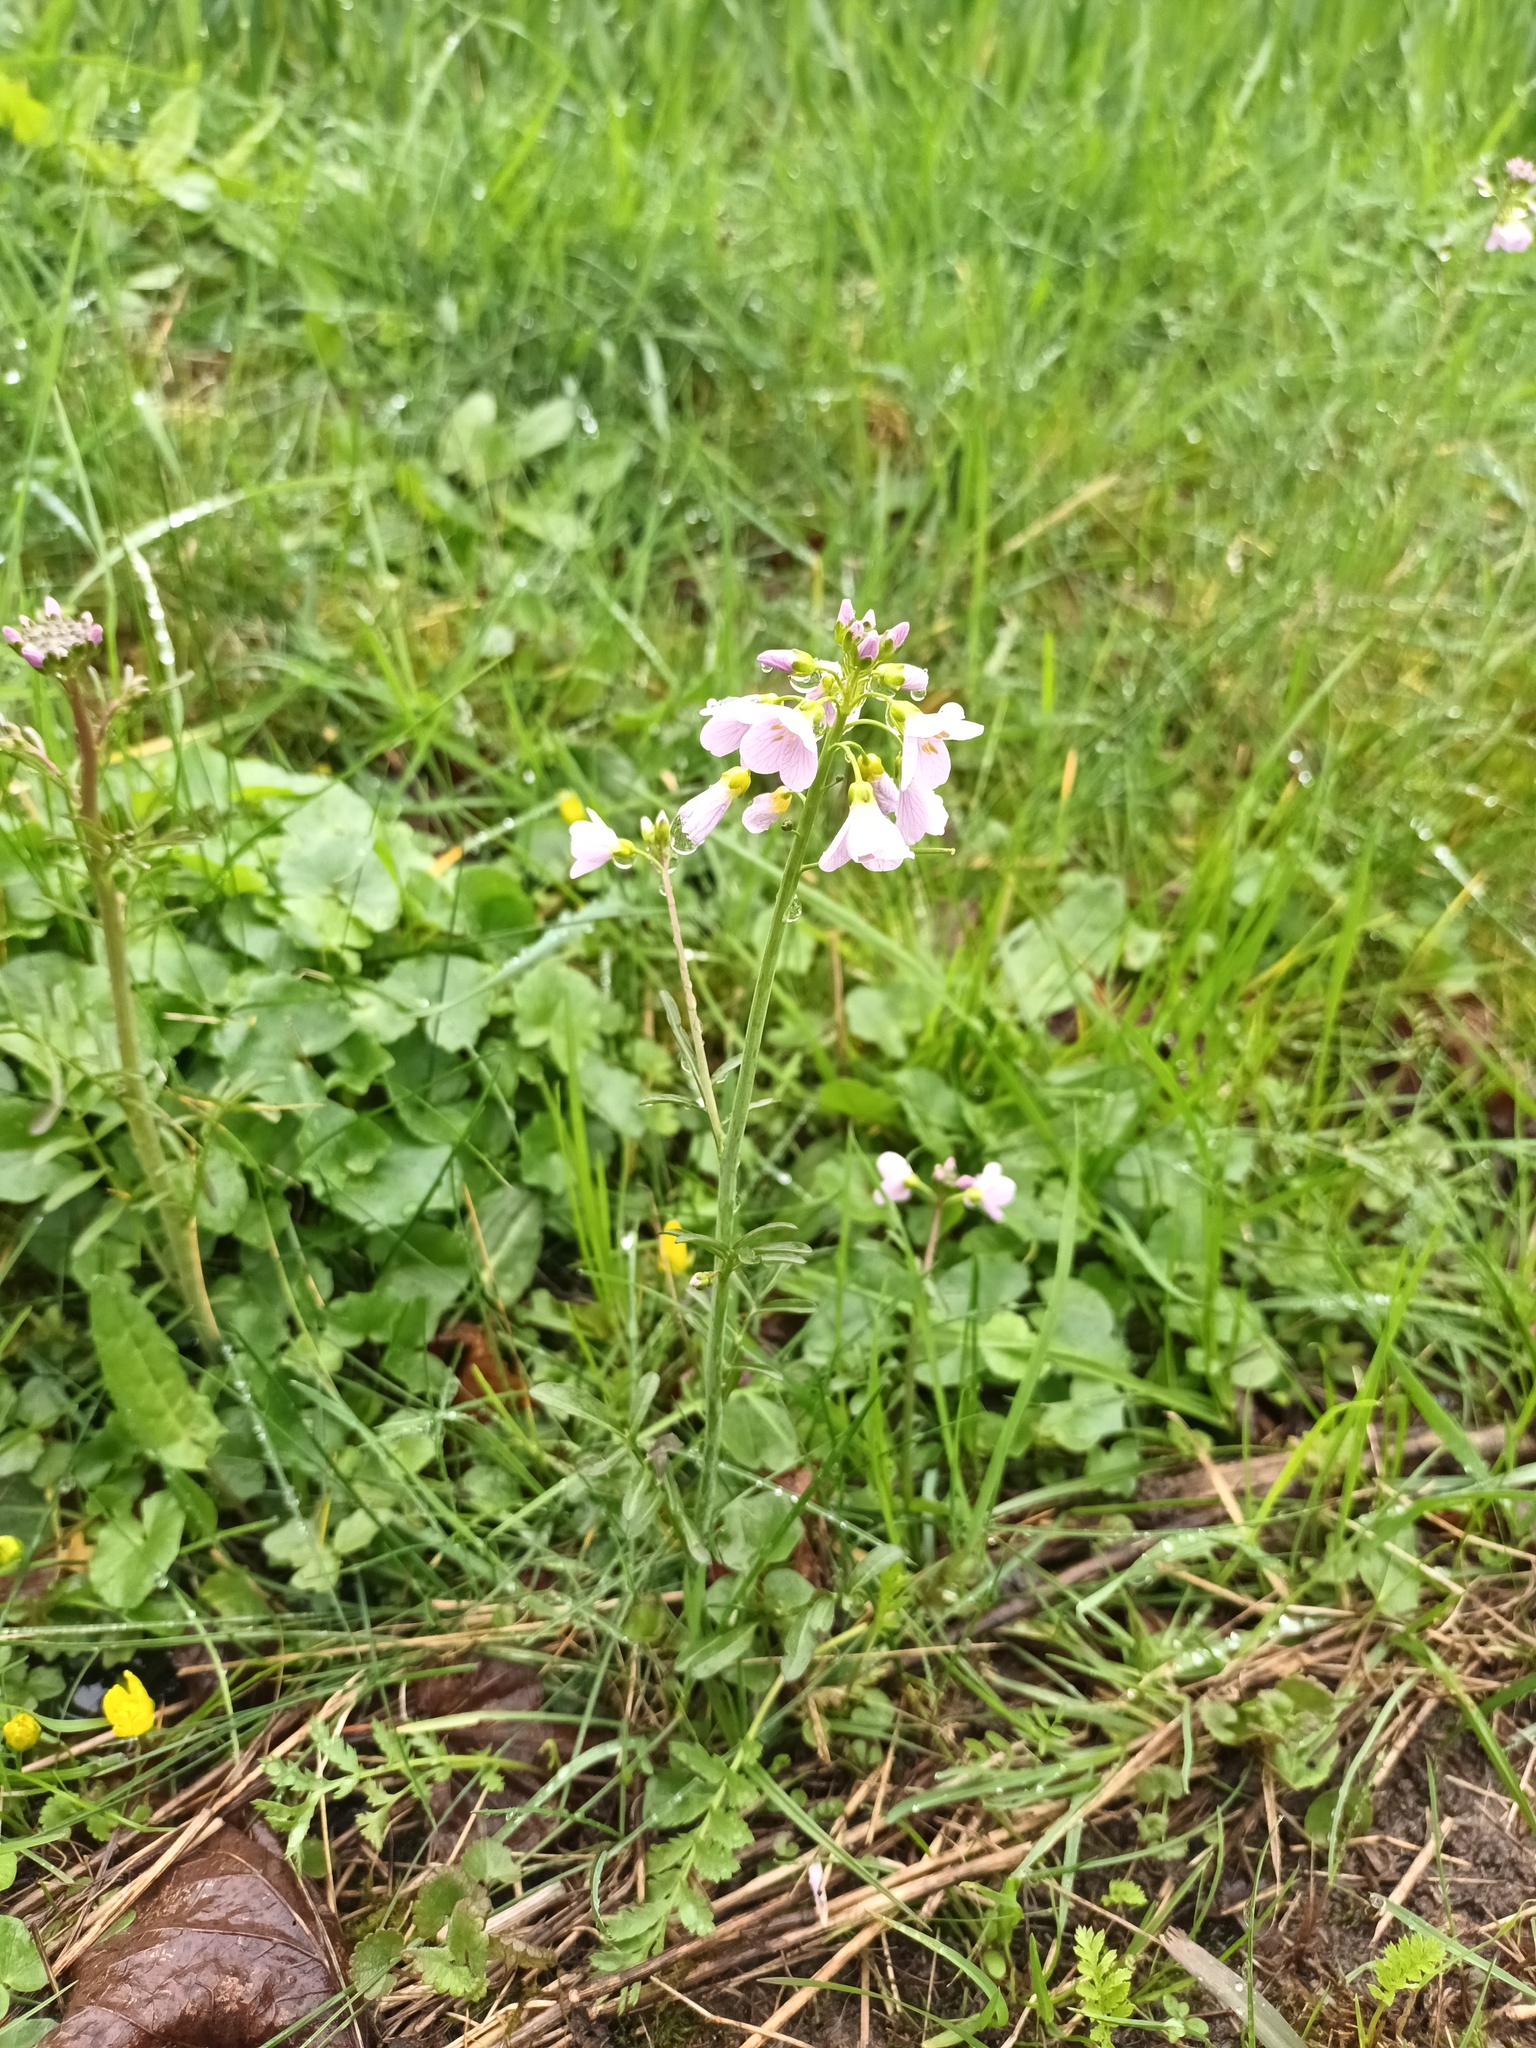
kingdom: Plantae
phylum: Tracheophyta
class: Magnoliopsida
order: Brassicales
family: Brassicaceae
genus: Cardamine
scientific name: Cardamine pratensis
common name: Cuckoo flower
